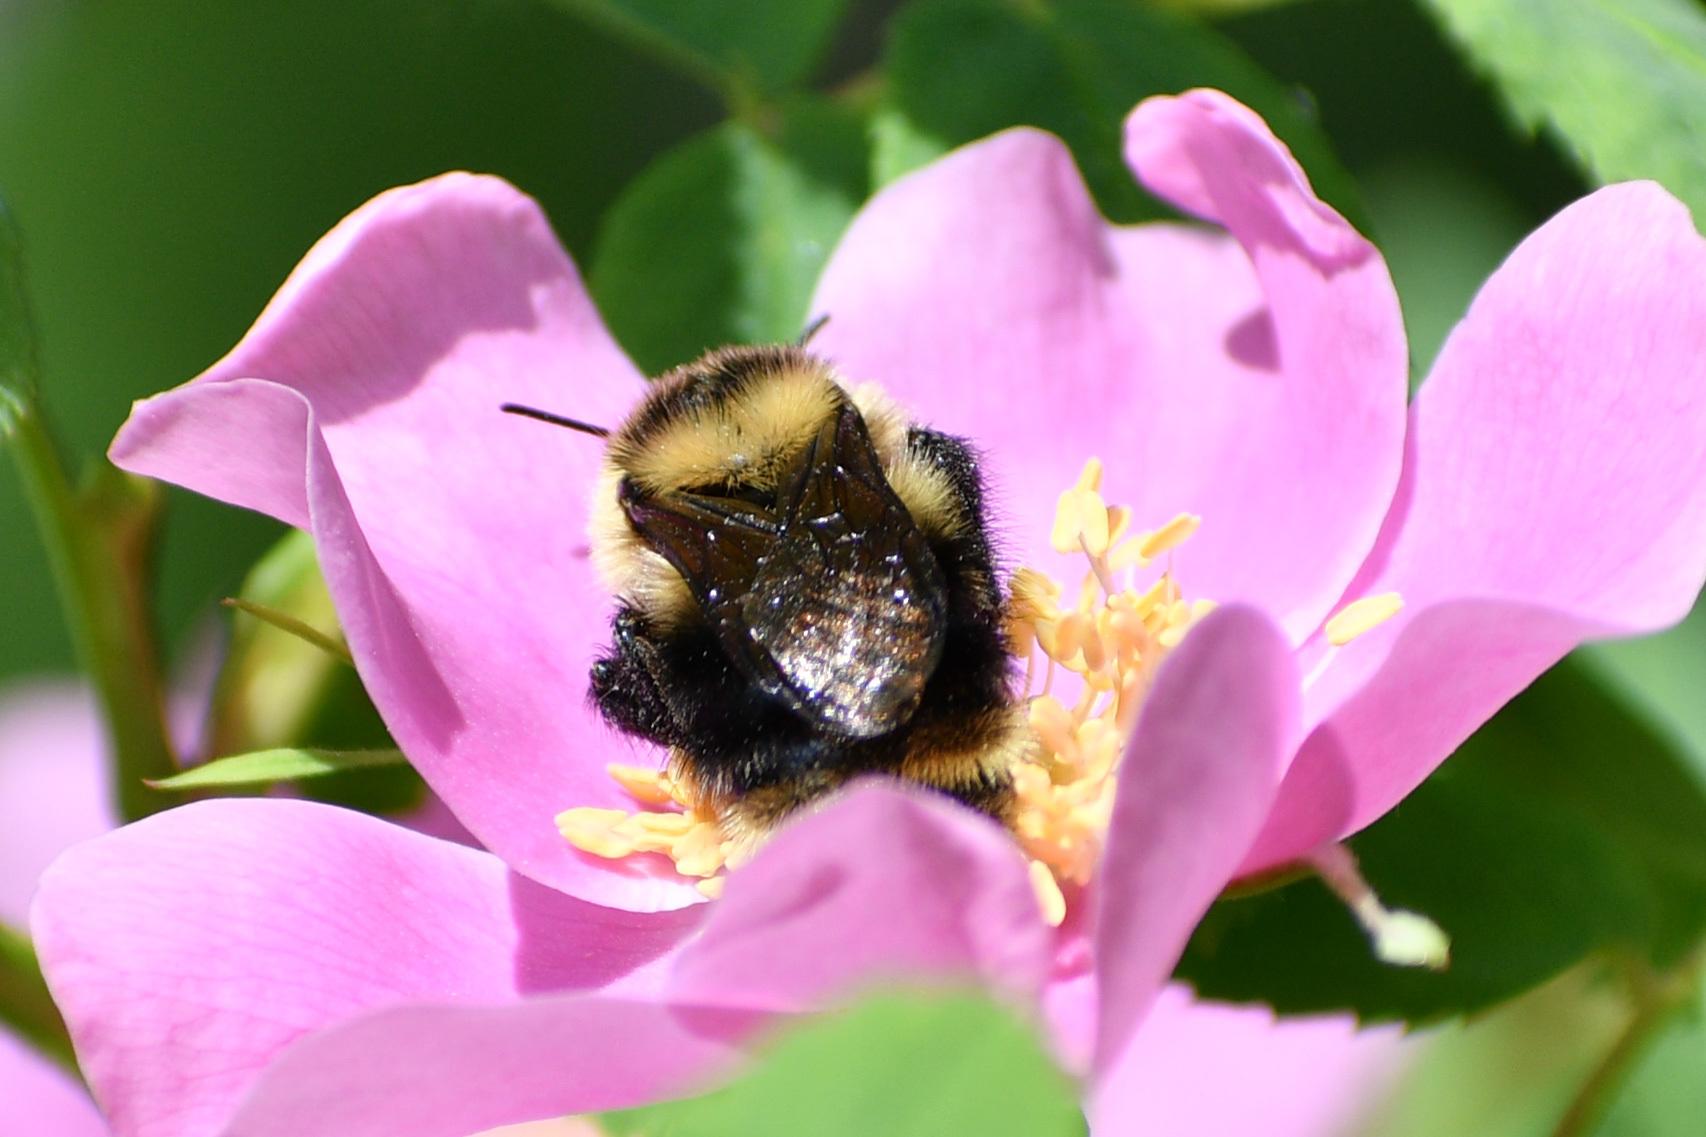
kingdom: Animalia
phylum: Arthropoda
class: Insecta
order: Hymenoptera
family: Apidae
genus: Bombus
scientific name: Bombus rufocinctus
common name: Red-belted bumble bee
